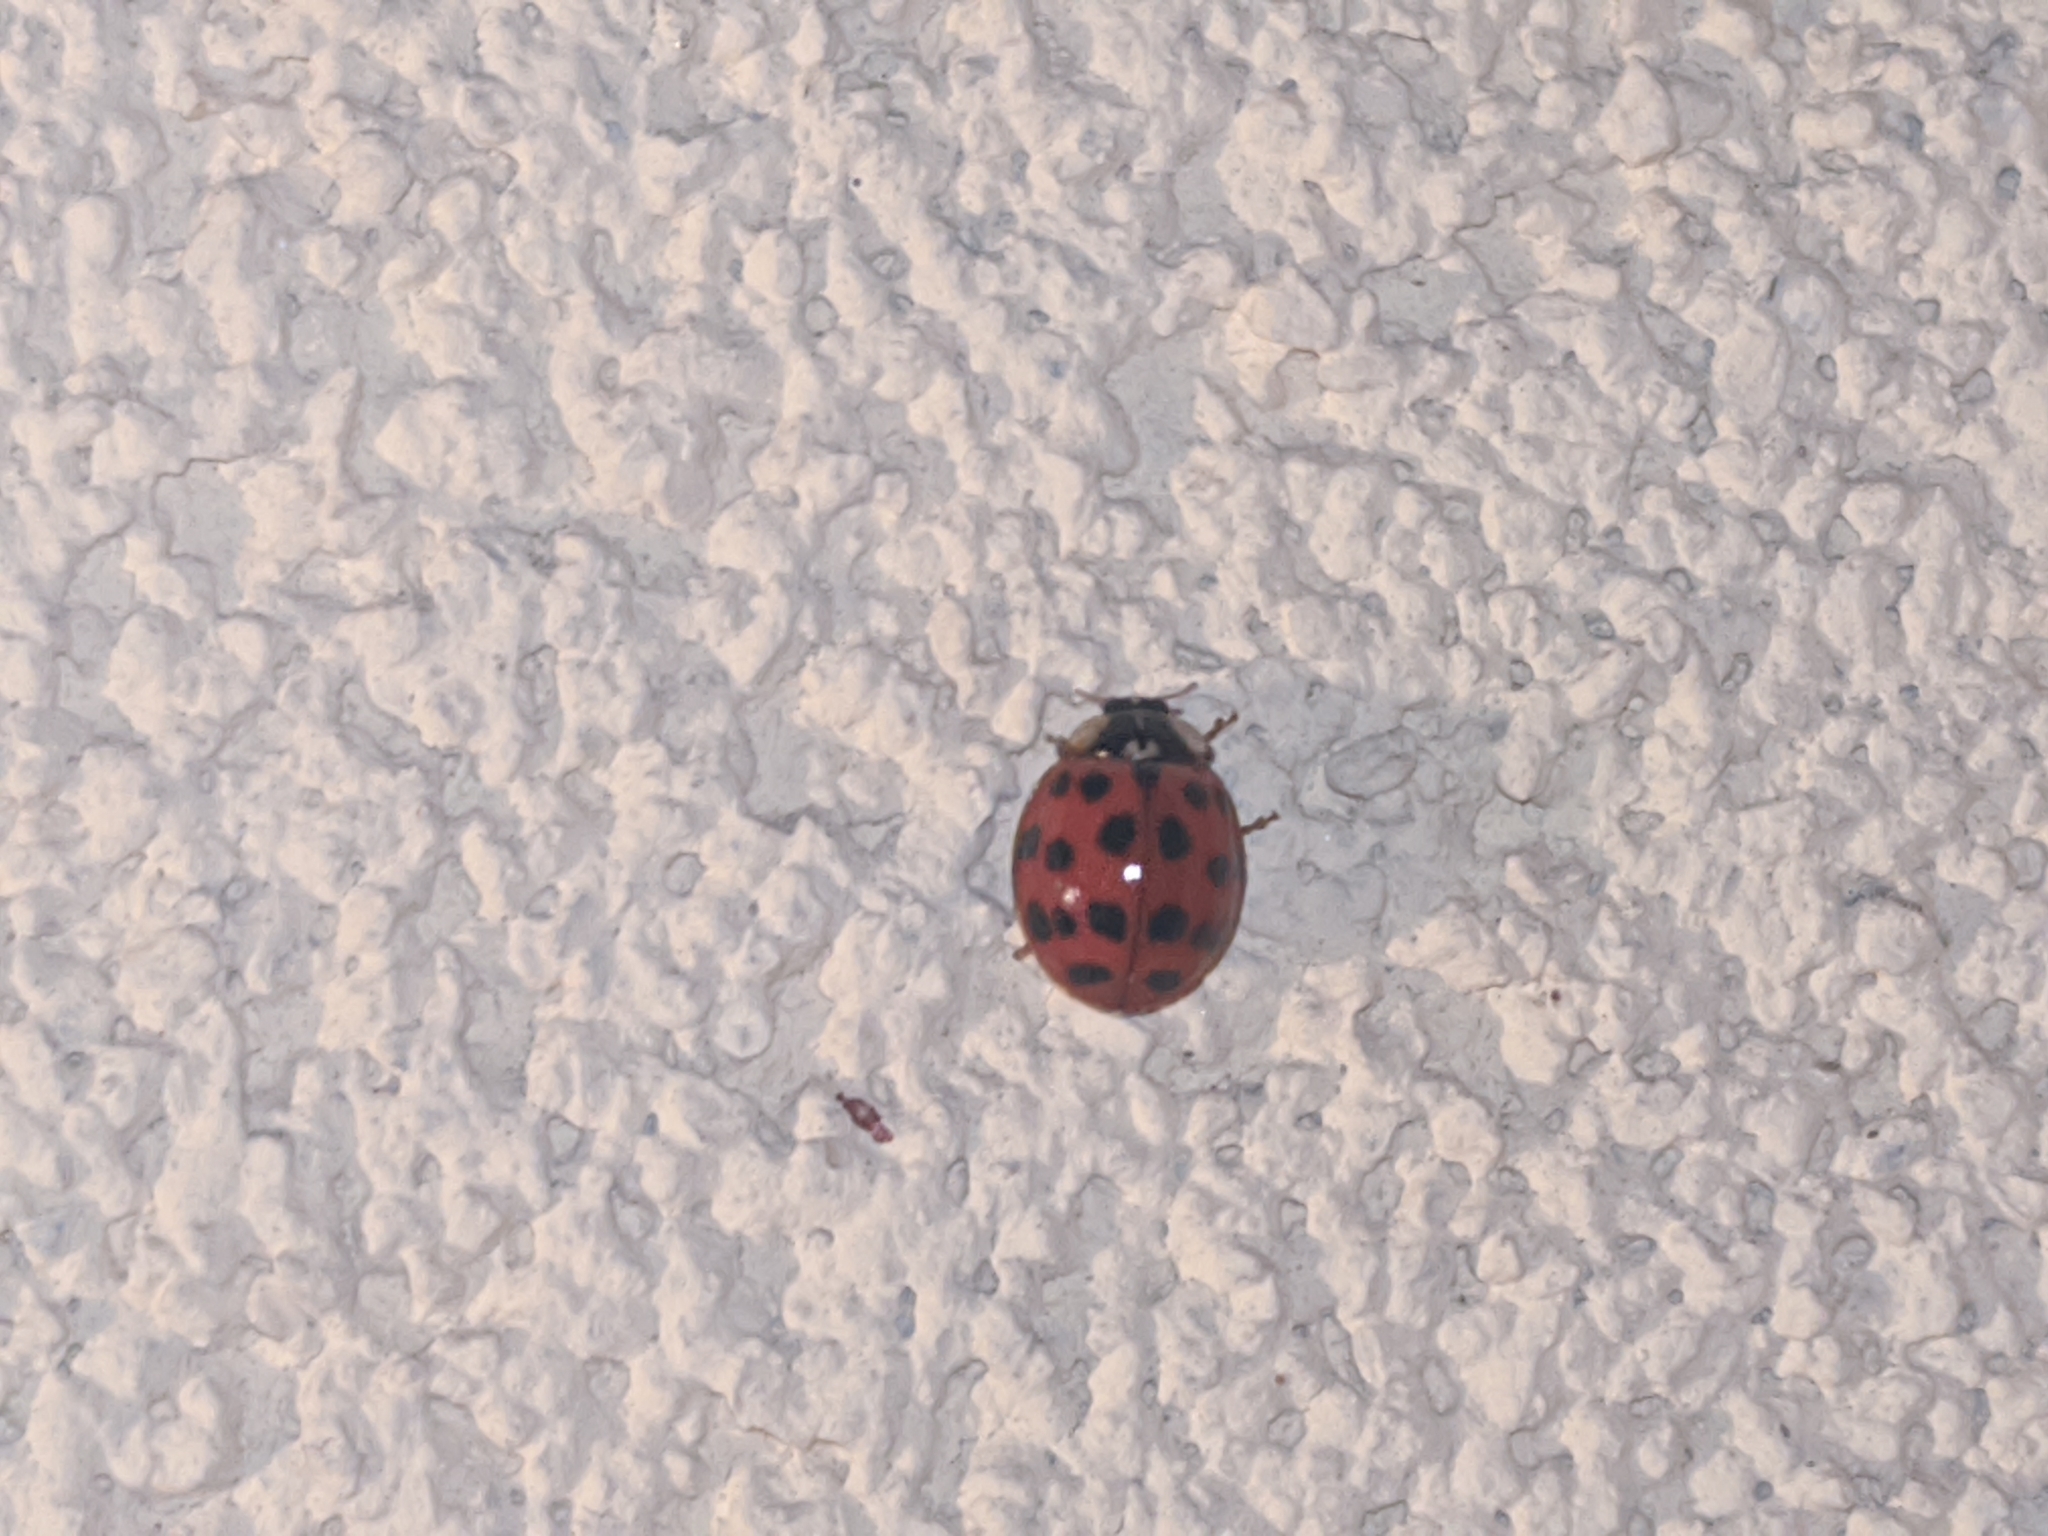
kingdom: Animalia
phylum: Arthropoda
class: Insecta
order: Coleoptera
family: Coccinellidae
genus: Harmonia
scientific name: Harmonia axyridis
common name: Harlequin ladybird
